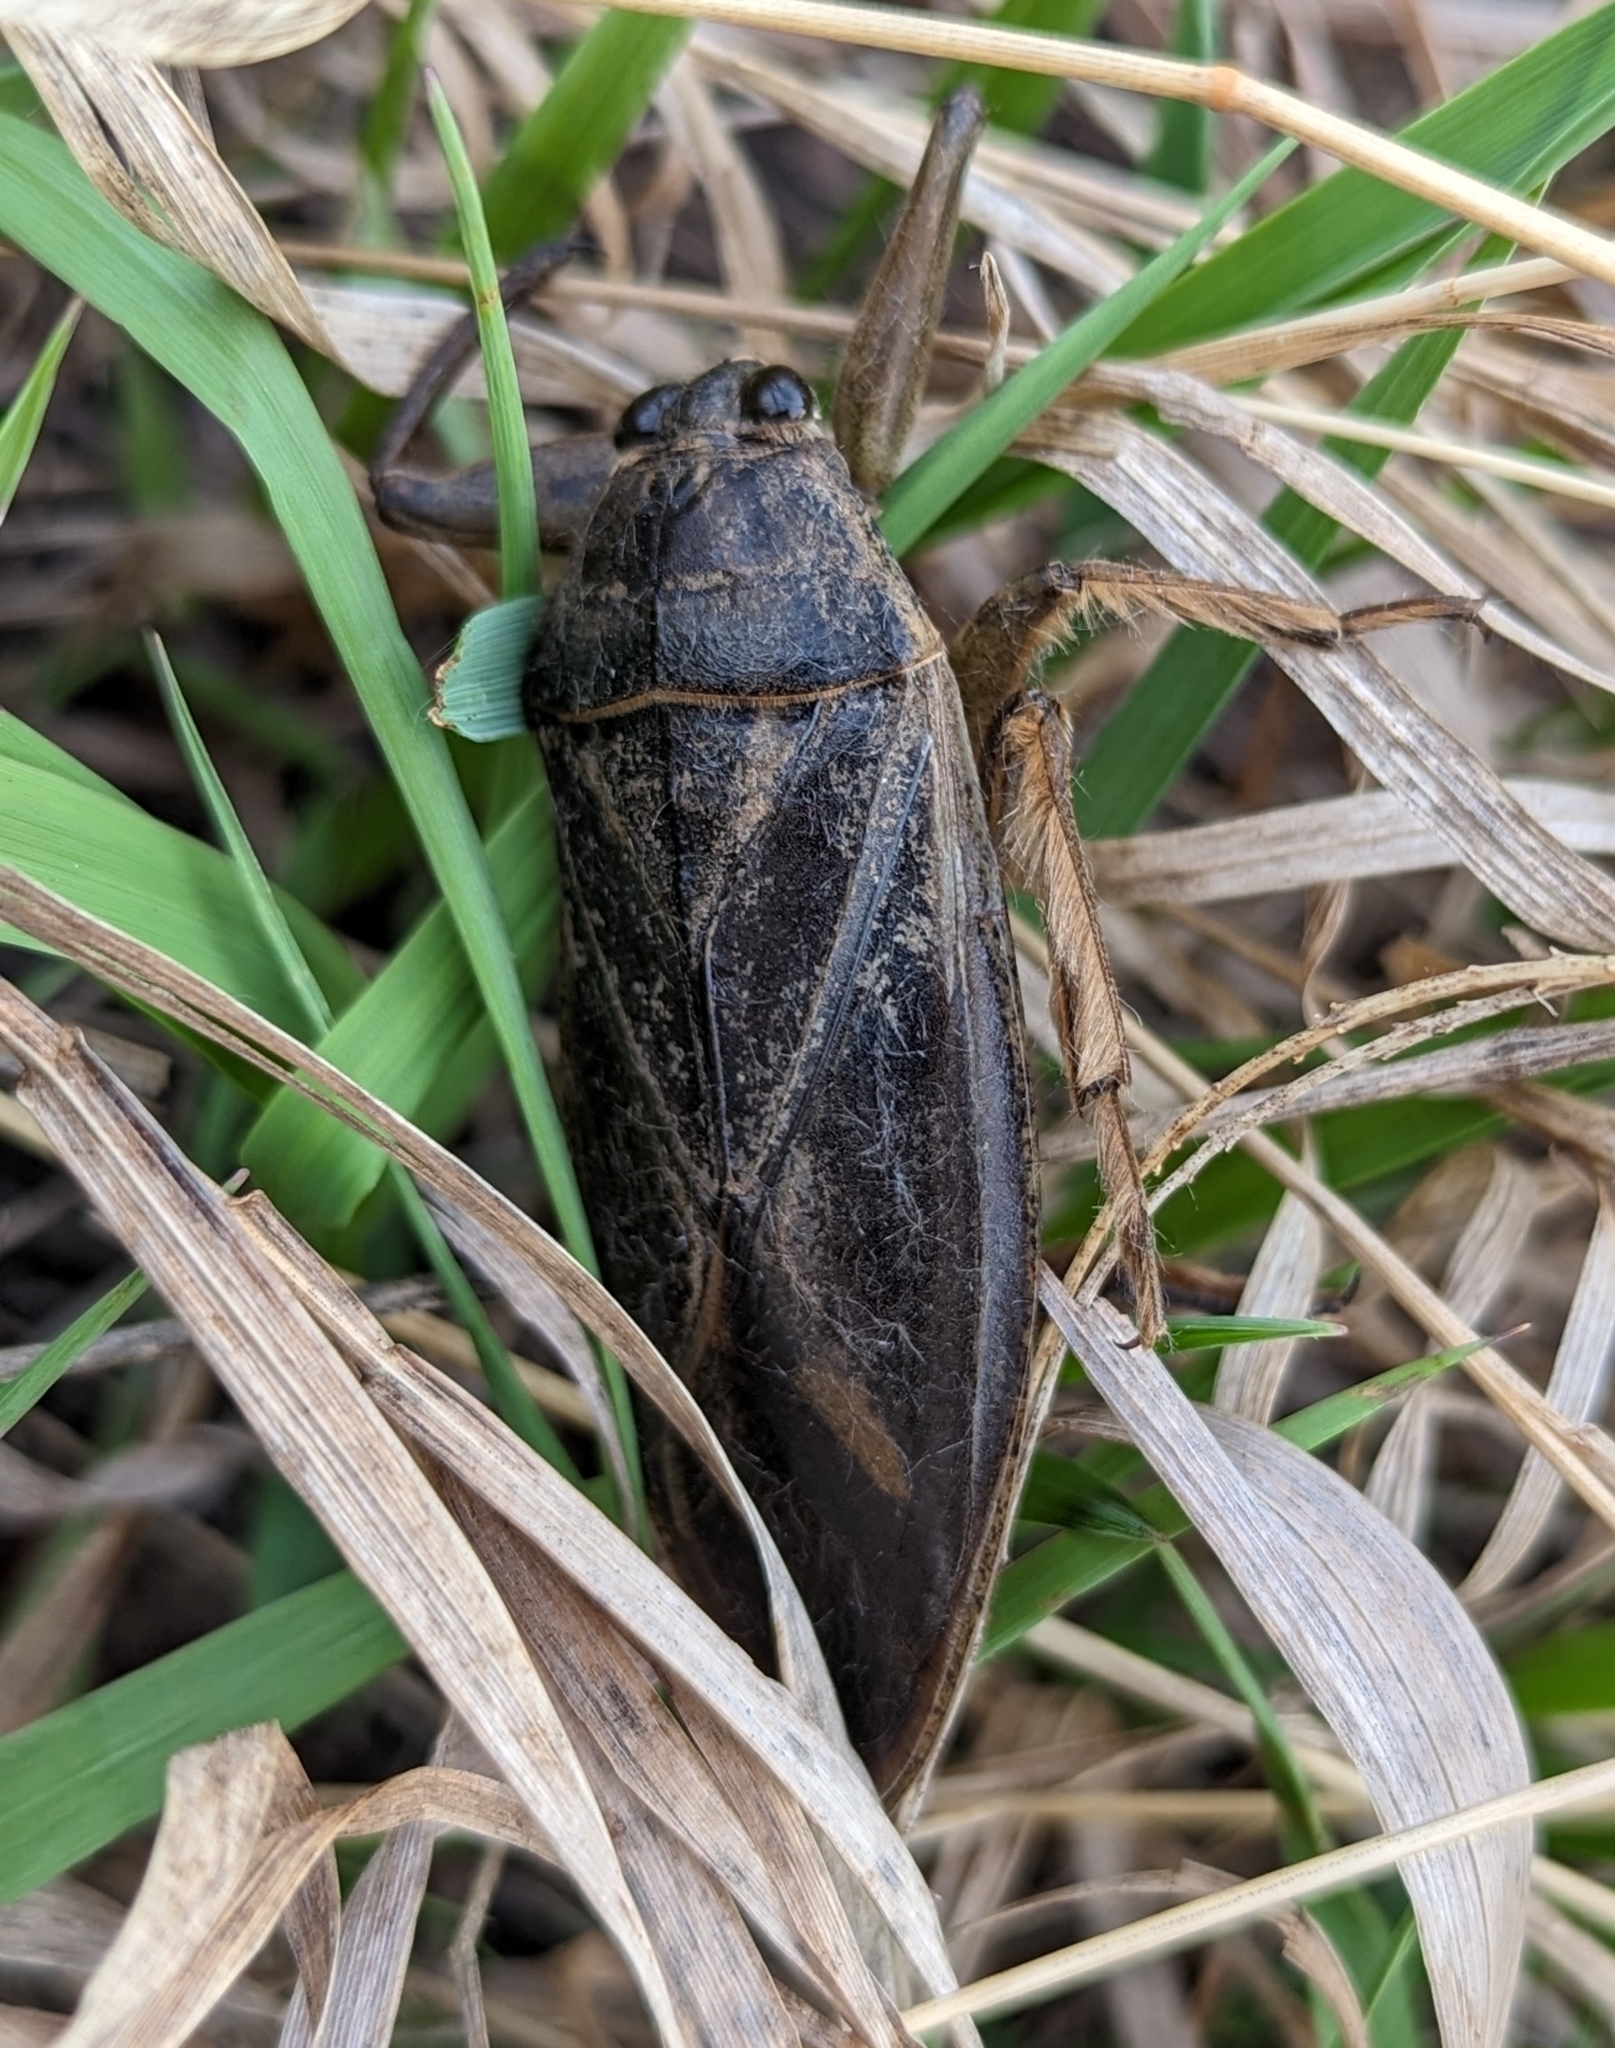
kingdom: Animalia
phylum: Arthropoda
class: Insecta
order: Hemiptera
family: Belostomatidae
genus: Lethocerus
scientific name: Lethocerus americanus
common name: Giant water bug
